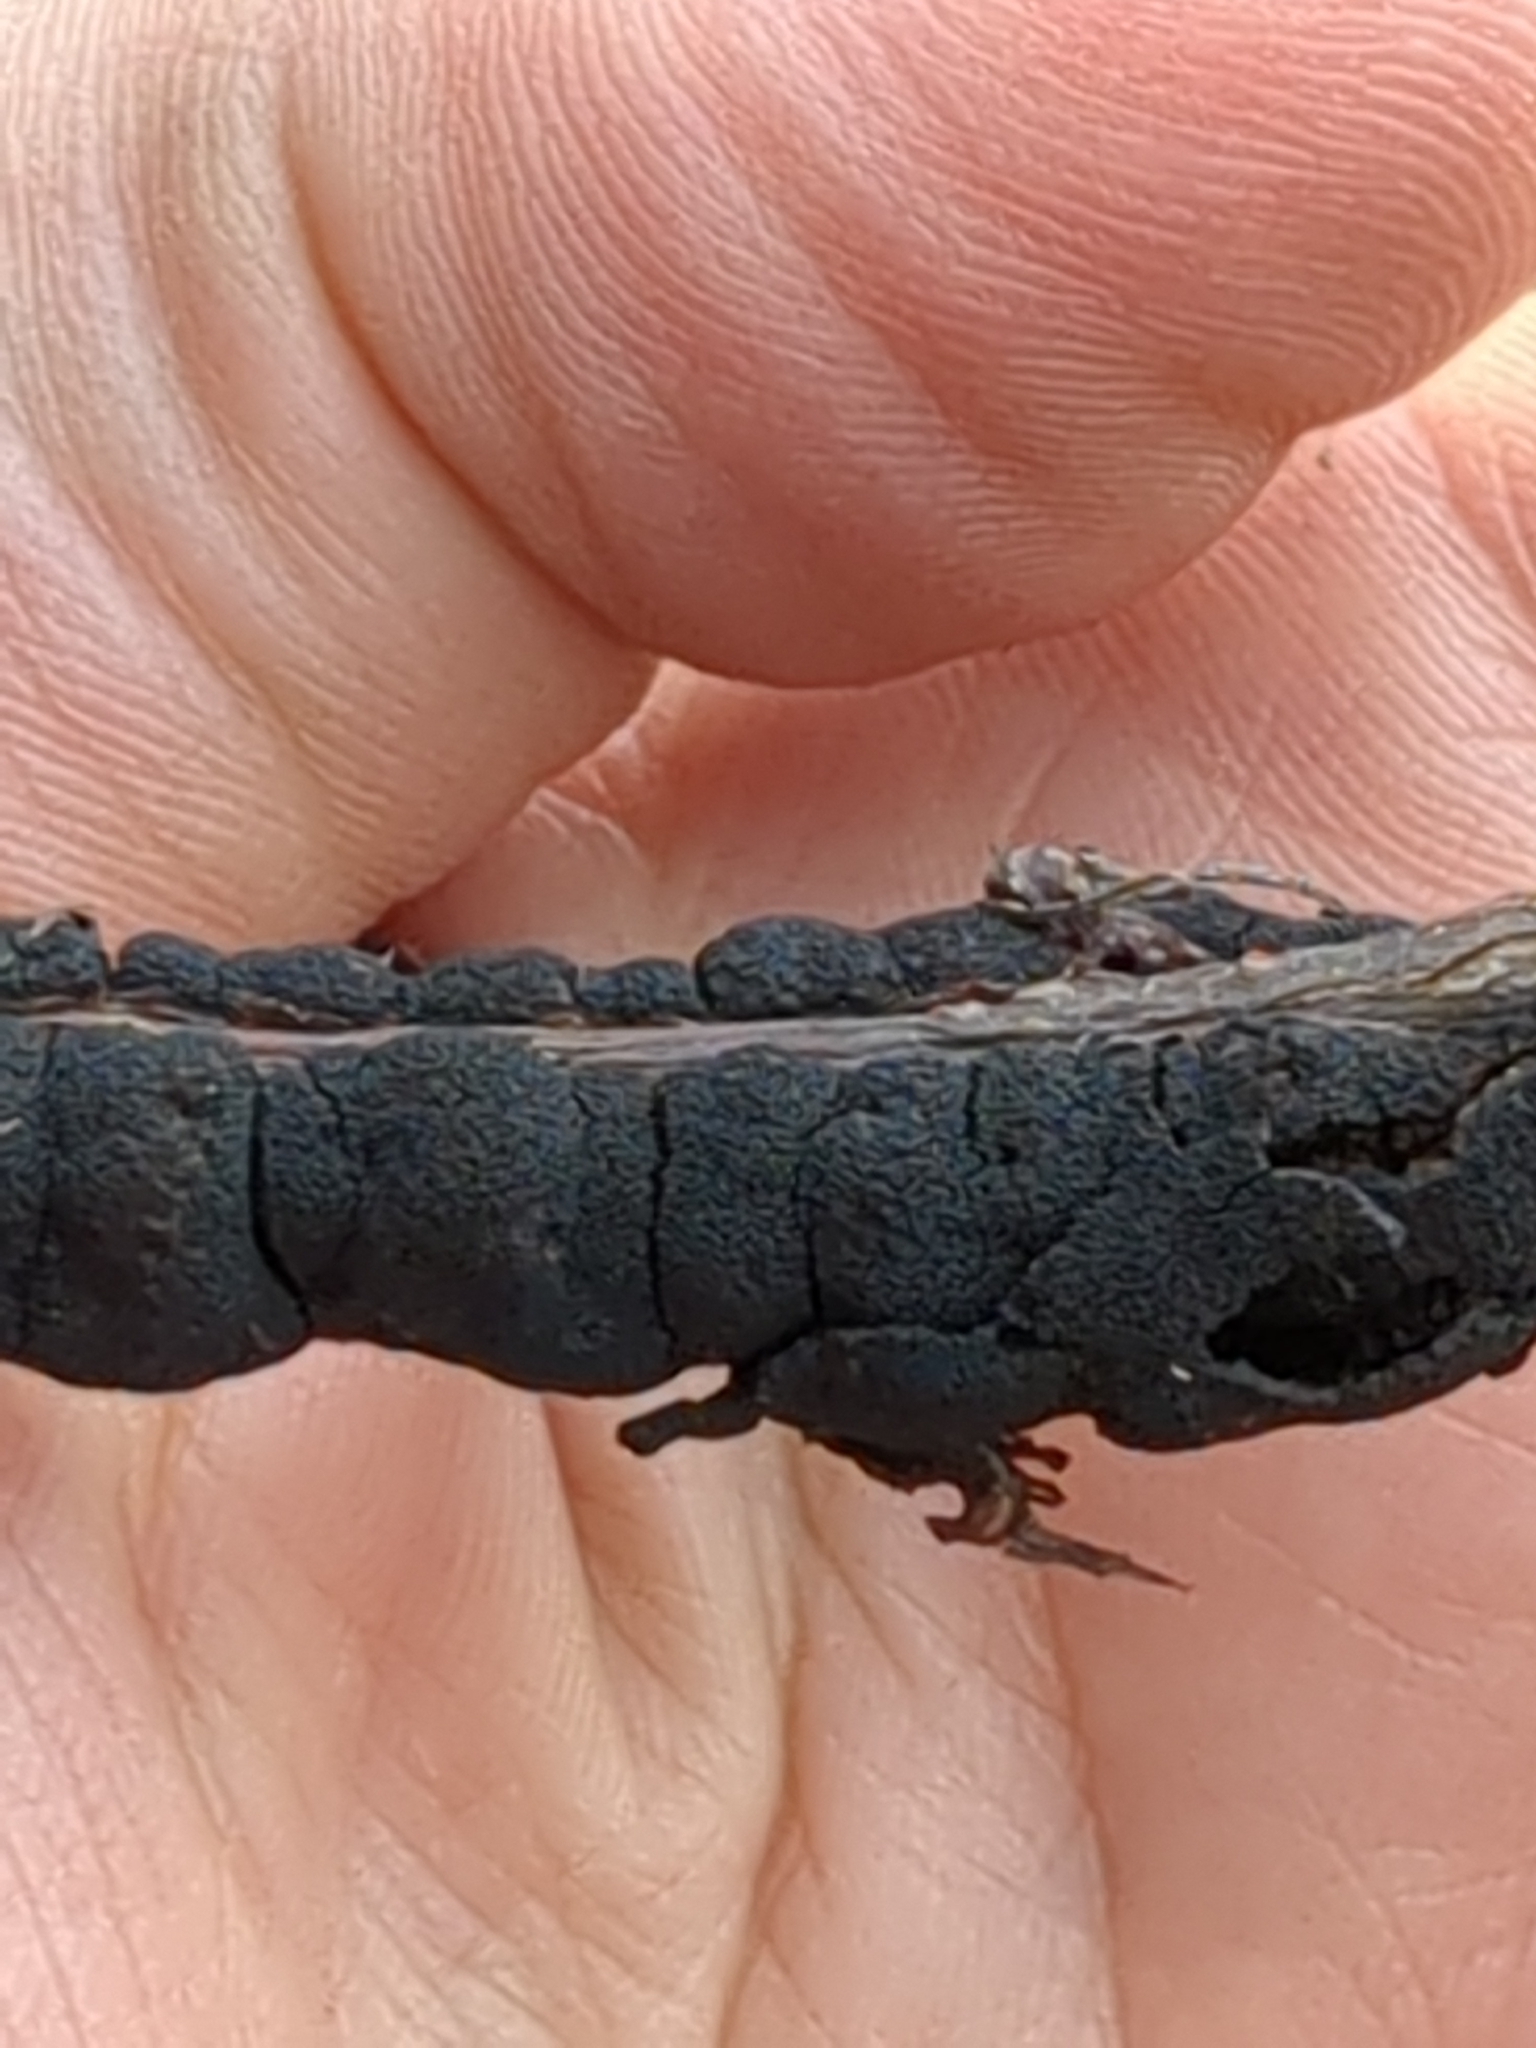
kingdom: Fungi
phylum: Ascomycota
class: Dothideomycetes
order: Venturiales
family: Venturiaceae
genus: Apiosporina
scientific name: Apiosporina morbosa
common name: Black knot
